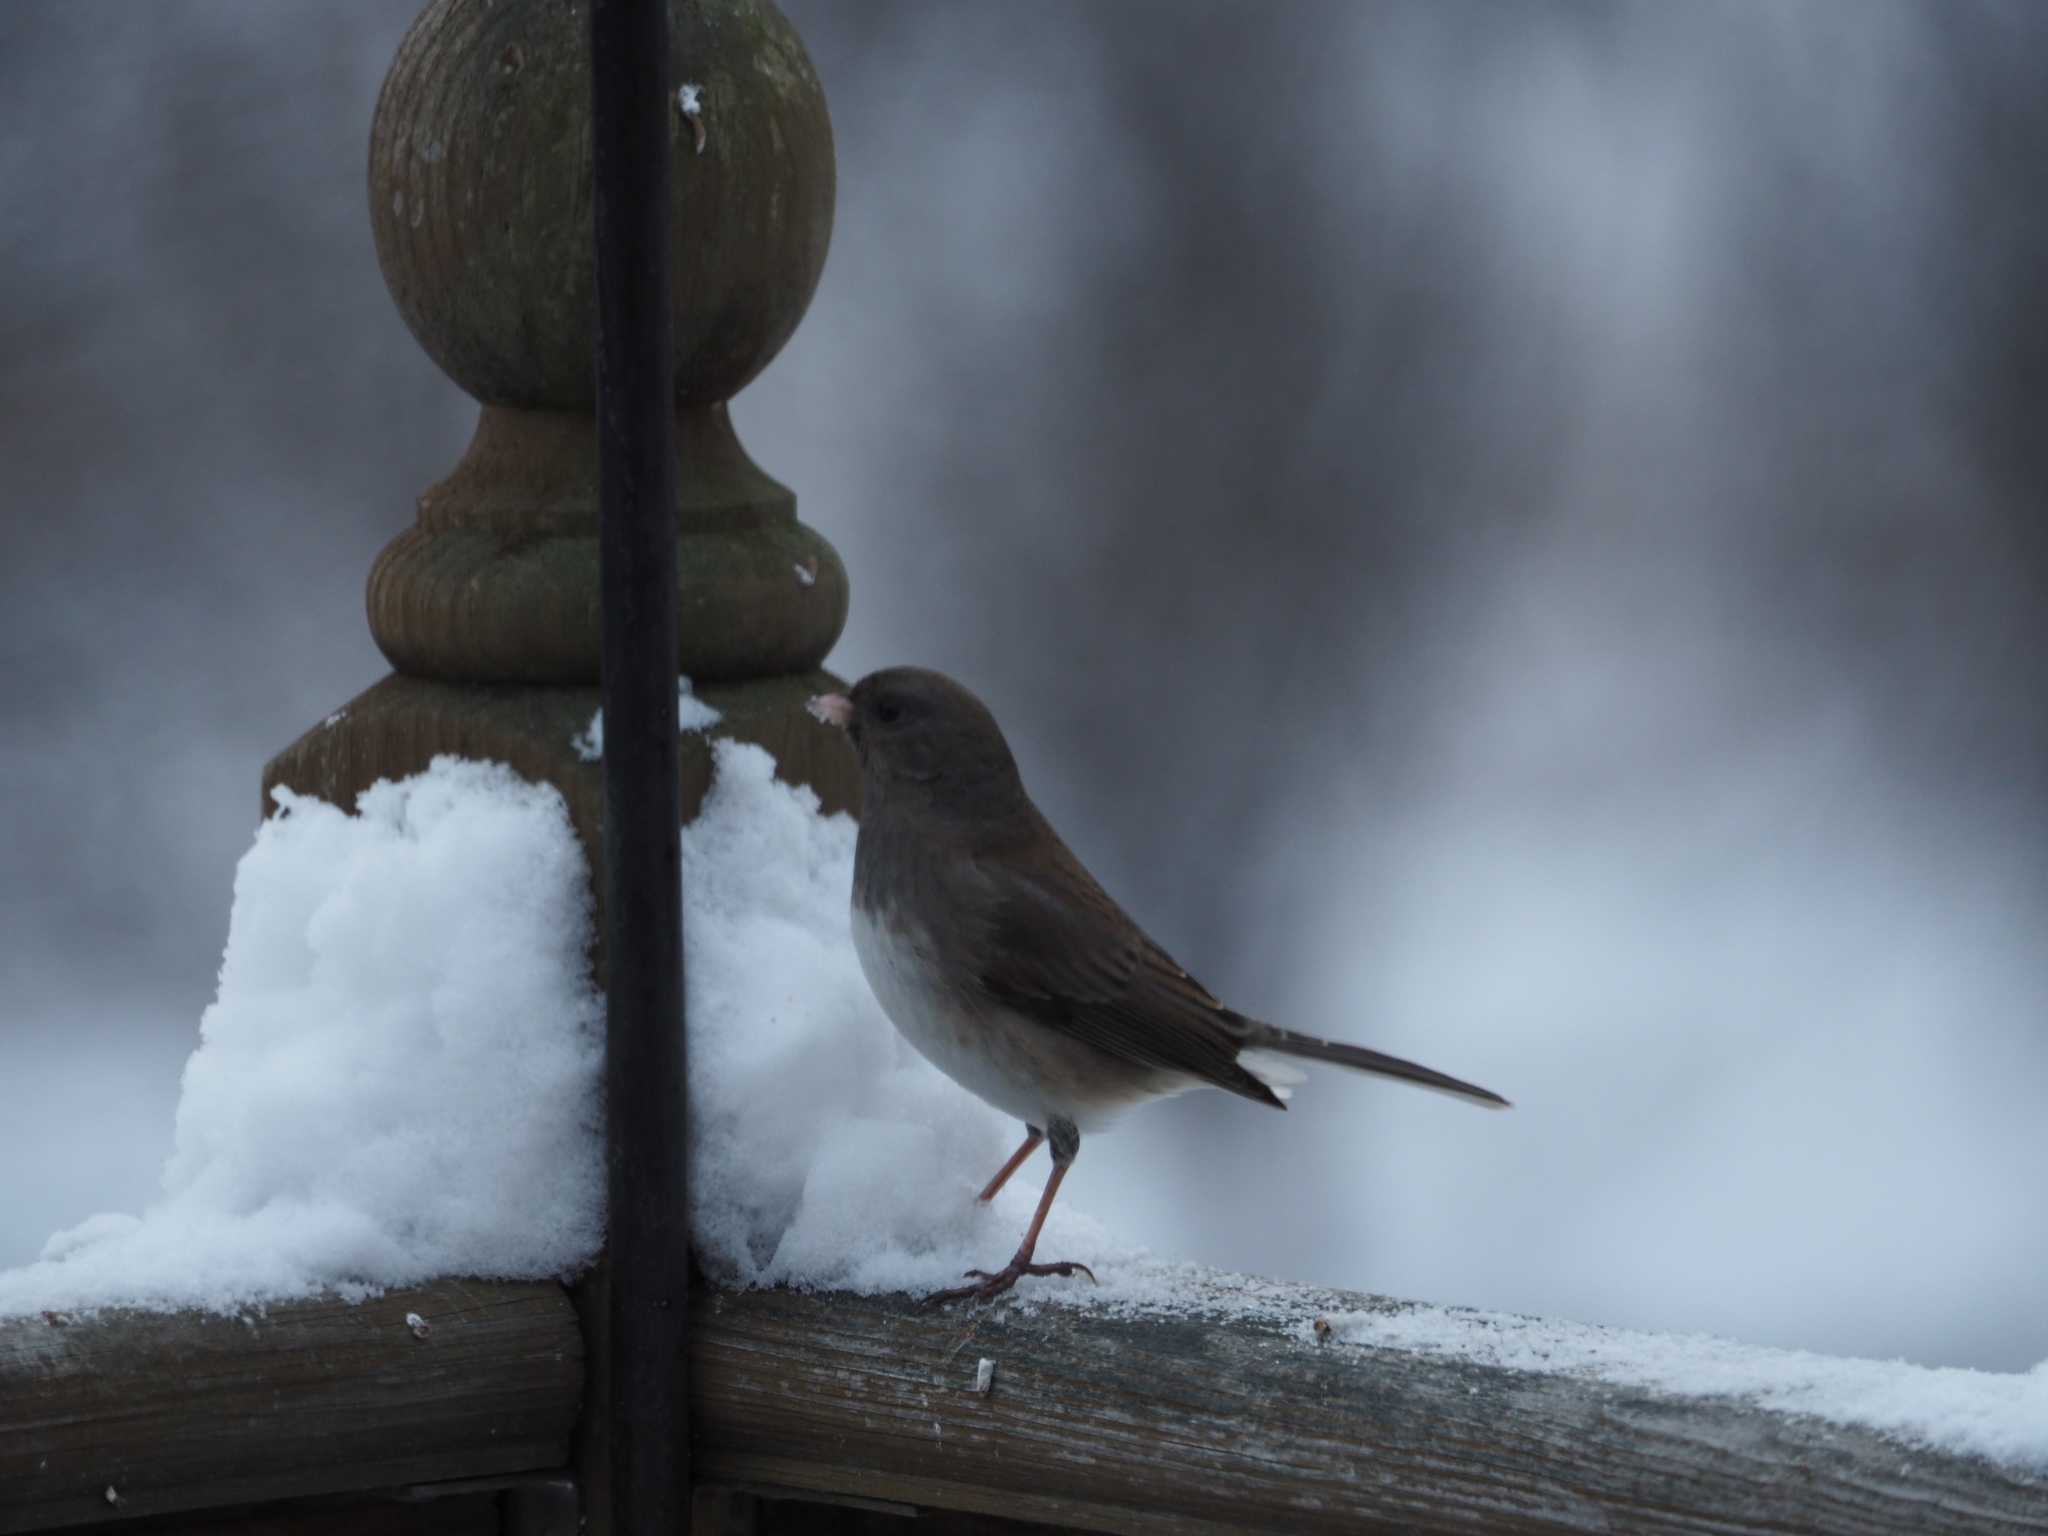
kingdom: Animalia
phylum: Chordata
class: Aves
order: Passeriformes
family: Passerellidae
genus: Junco
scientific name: Junco hyemalis
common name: Dark-eyed junco
